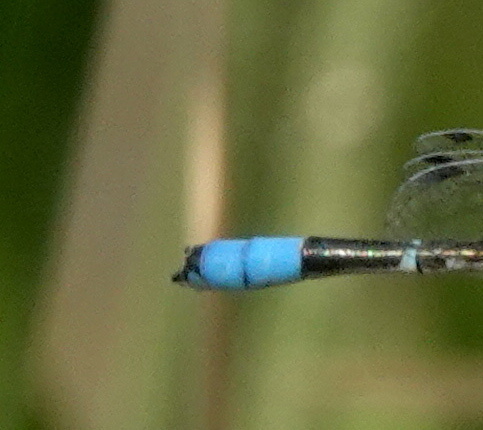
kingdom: Animalia
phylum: Arthropoda
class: Insecta
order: Odonata
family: Coenagrionidae
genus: Enallagma
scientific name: Enallagma carunculatum
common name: Tule bluet
